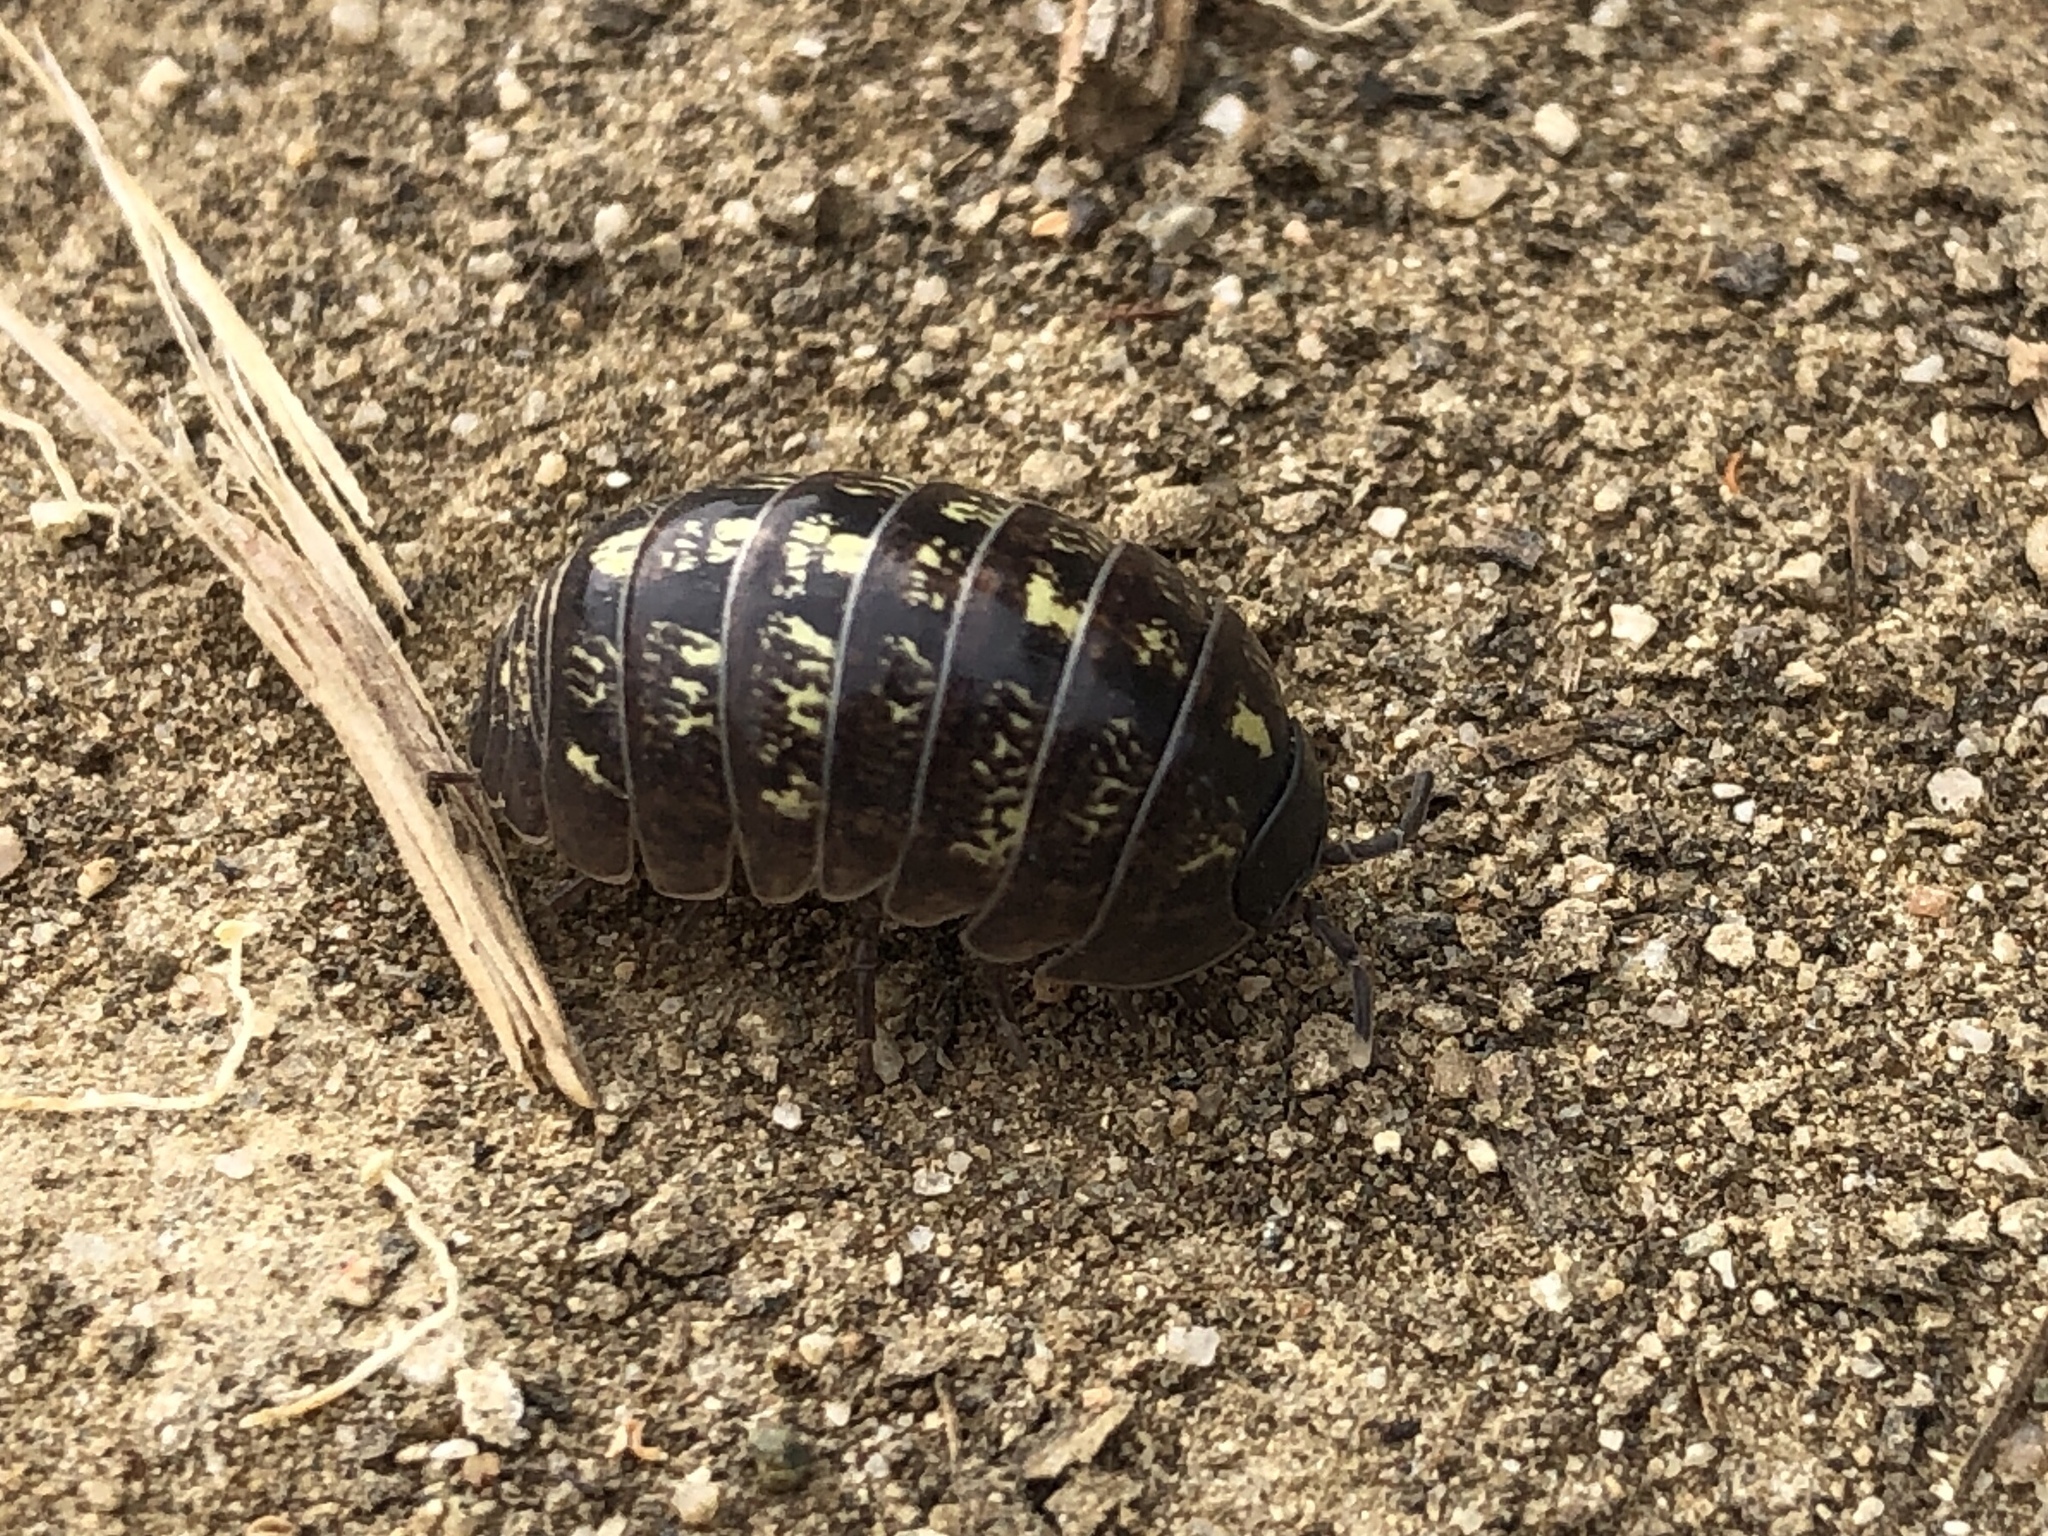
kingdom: Animalia
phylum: Arthropoda
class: Malacostraca
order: Isopoda
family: Armadillidiidae
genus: Armadillidium
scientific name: Armadillidium vulgare
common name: Common pill woodlouse
